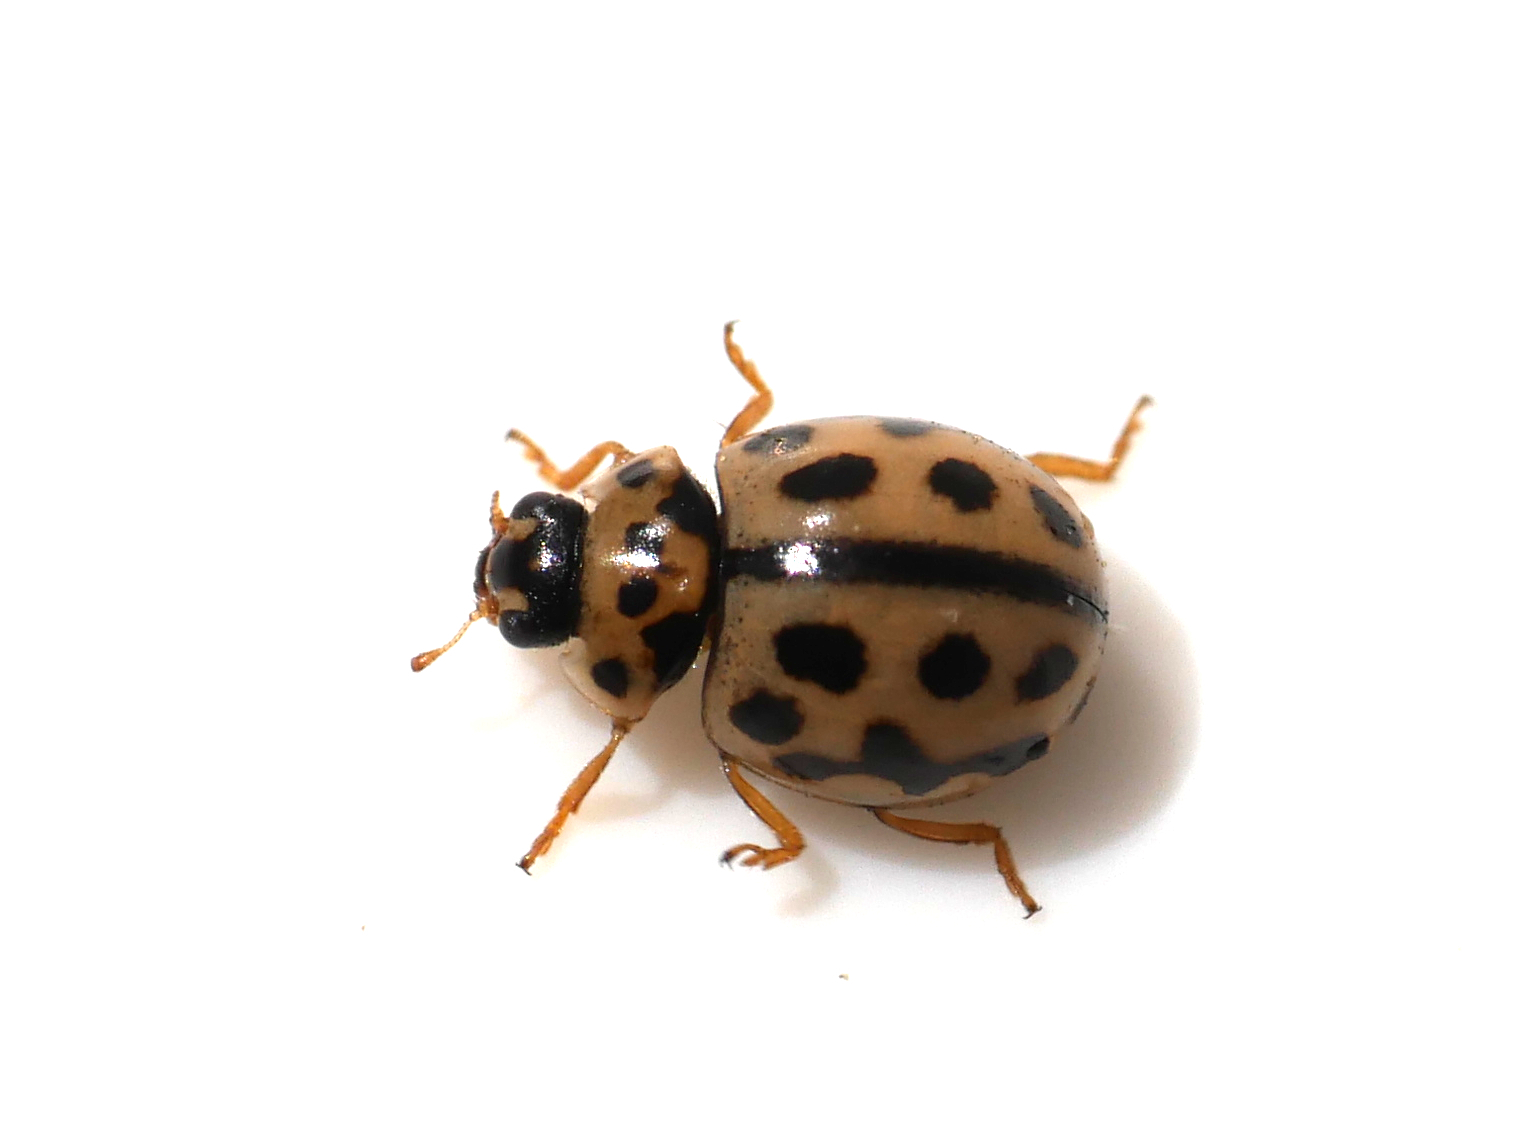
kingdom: Animalia
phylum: Arthropoda
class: Insecta
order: Coleoptera
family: Coccinellidae
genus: Tytthaspis
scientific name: Tytthaspis sedecimpunctata
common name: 16-spot ladybird
